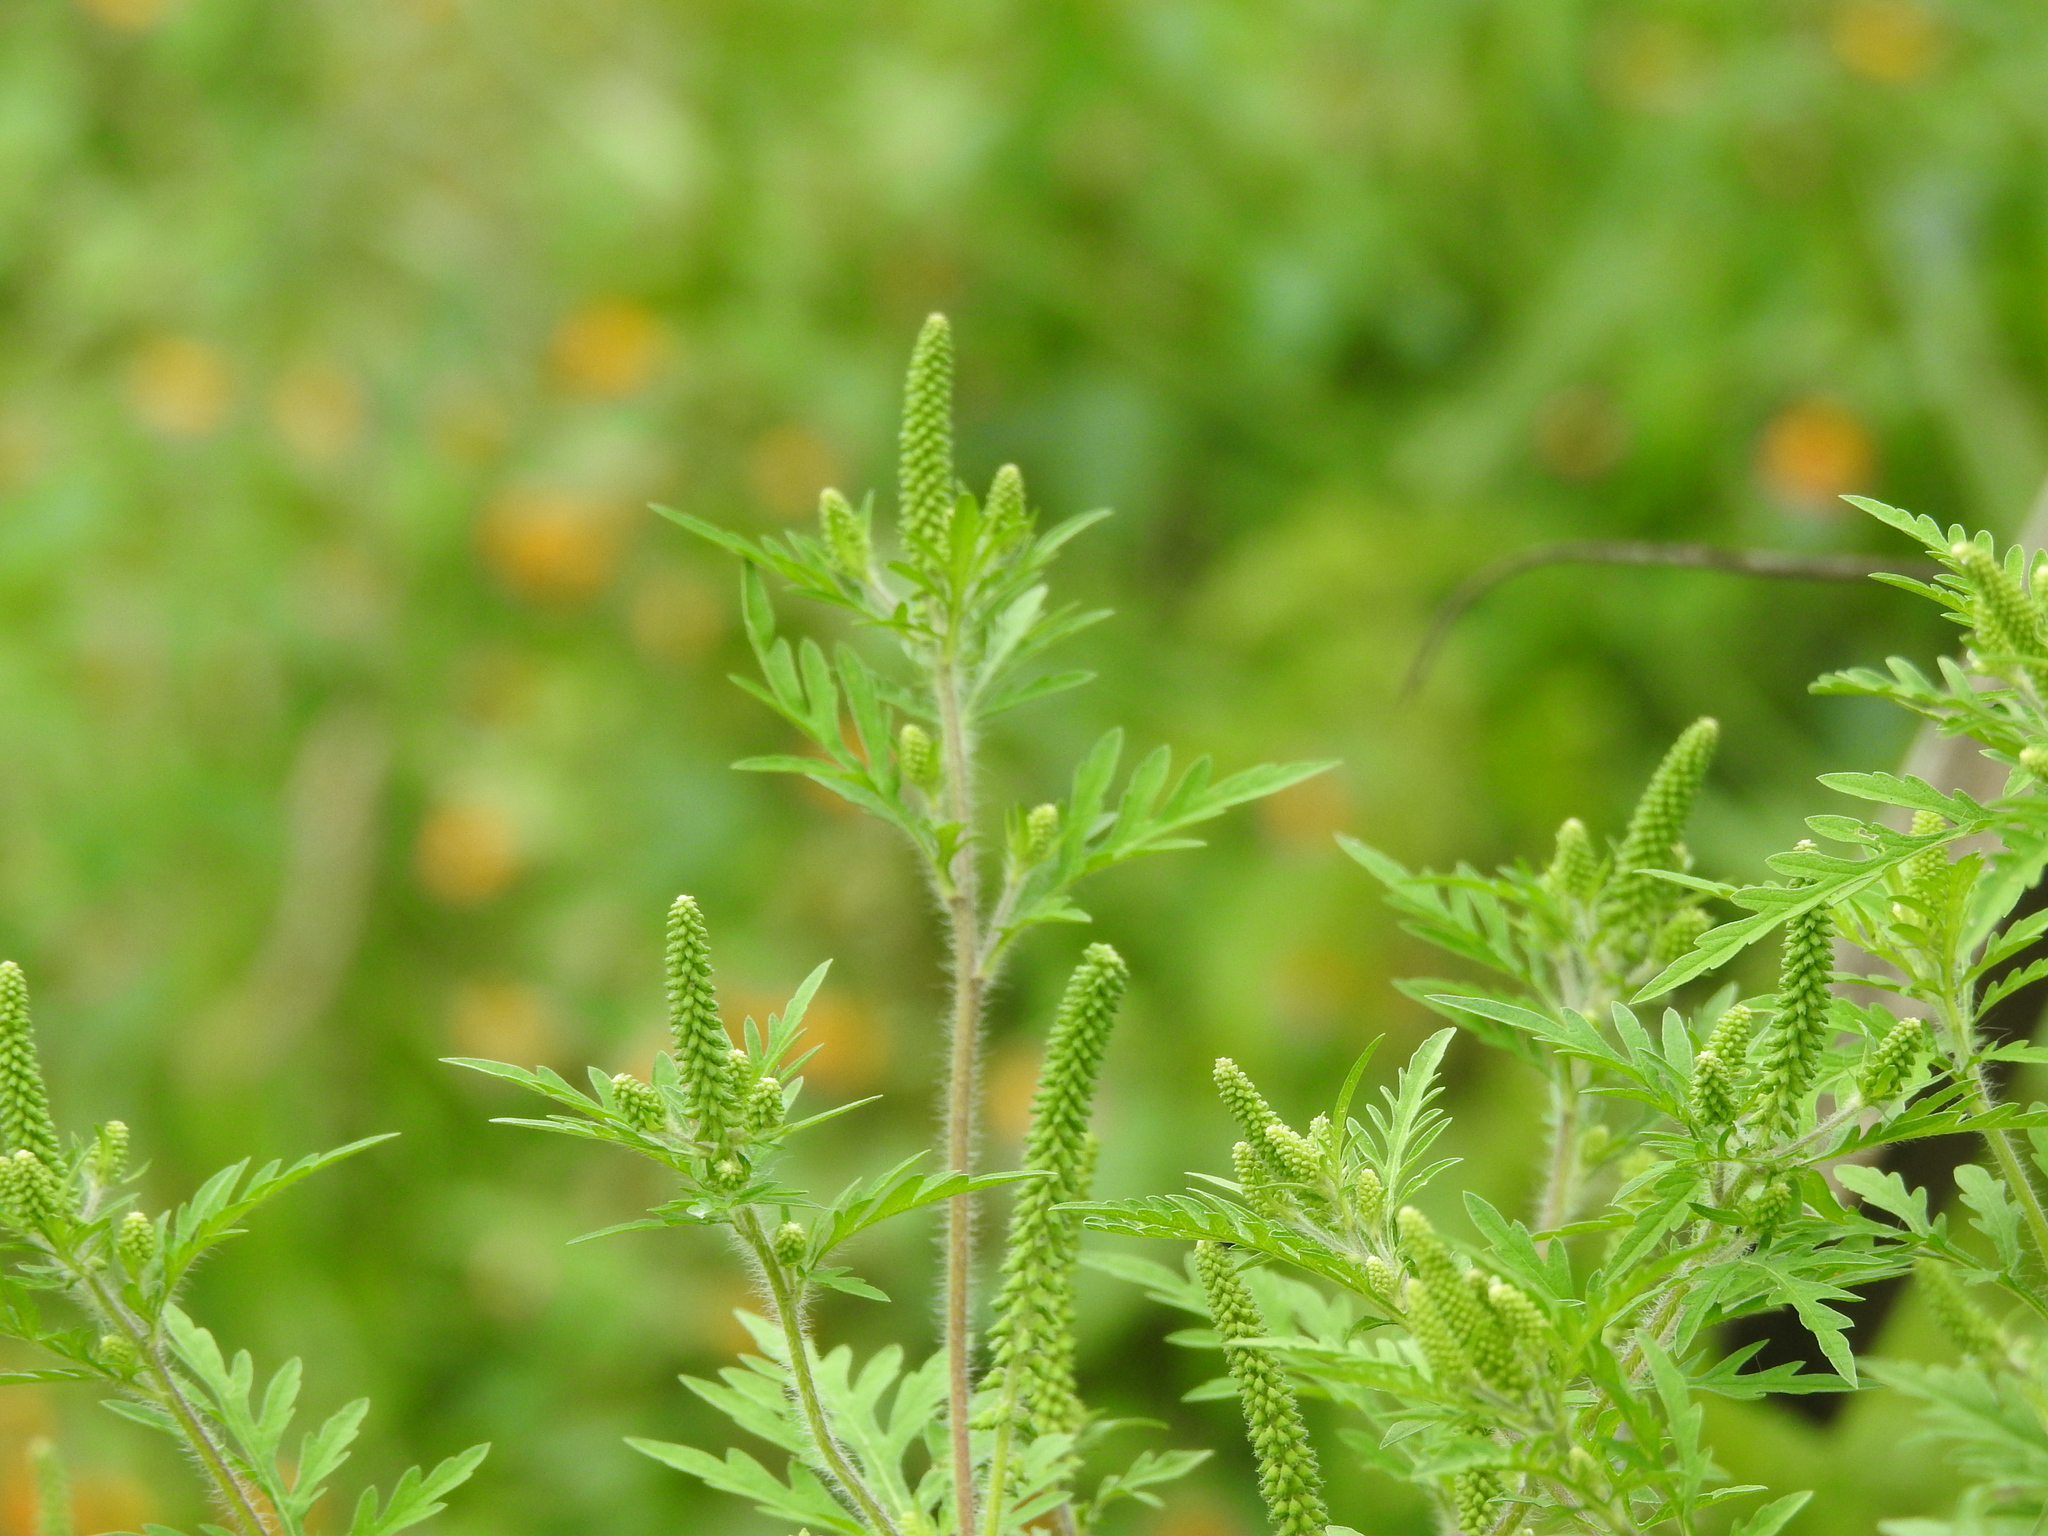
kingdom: Plantae
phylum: Tracheophyta
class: Magnoliopsida
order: Asterales
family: Asteraceae
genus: Ambrosia
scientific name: Ambrosia artemisiifolia
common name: Annual ragweed
